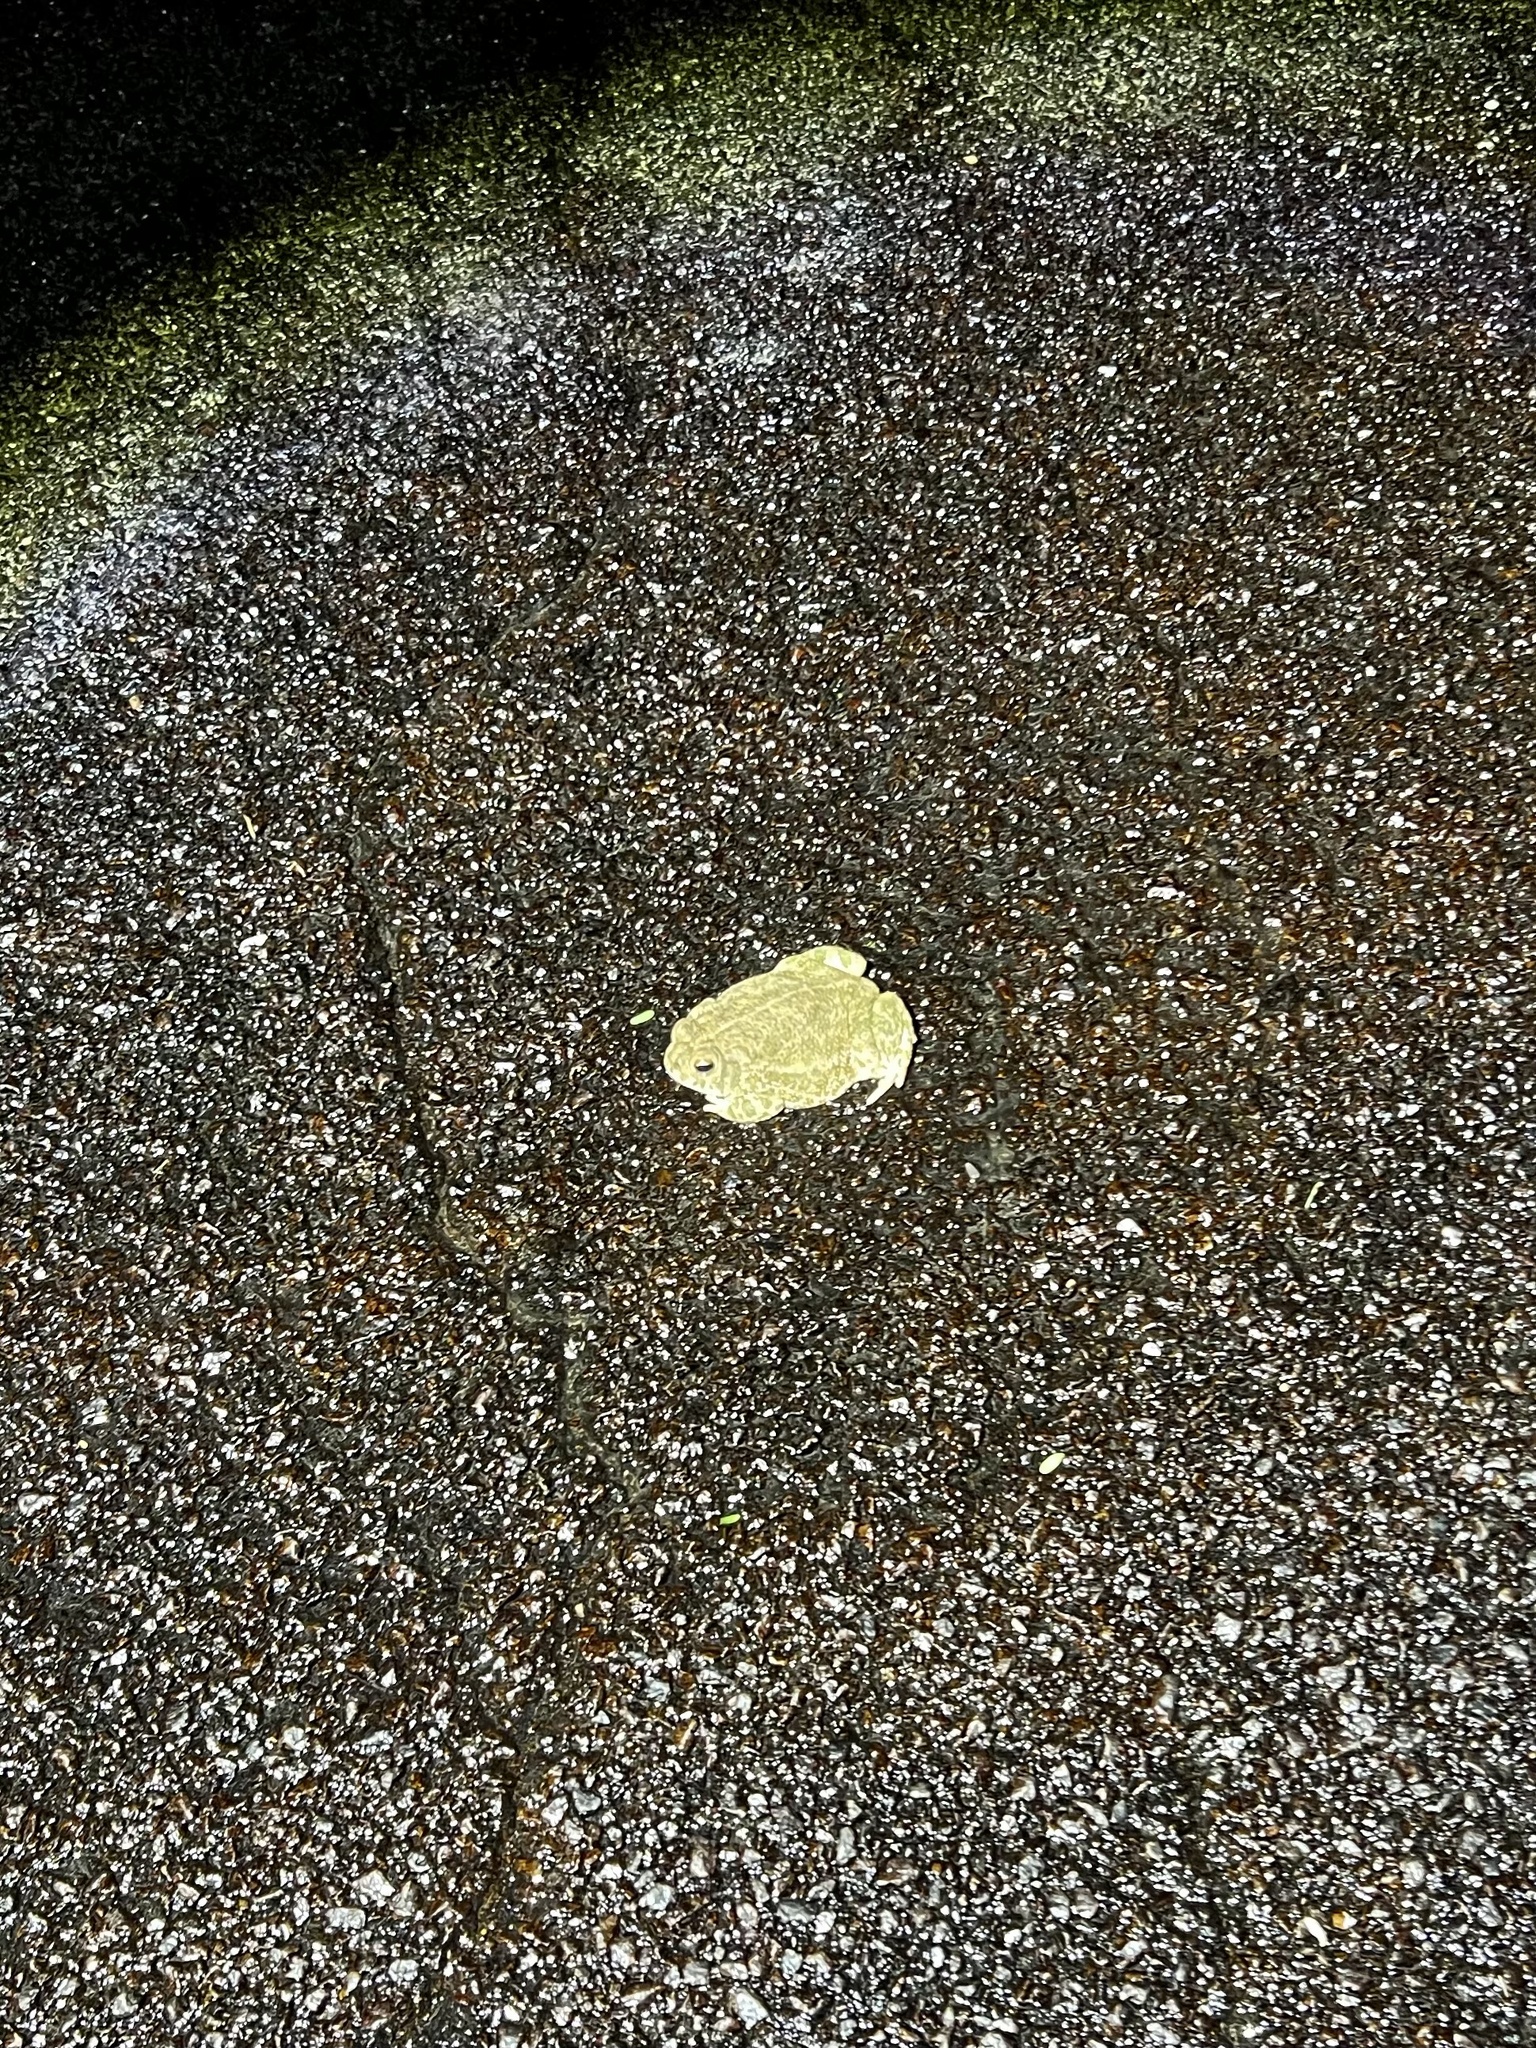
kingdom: Animalia
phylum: Chordata
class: Amphibia
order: Anura
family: Bufonidae
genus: Anaxyrus
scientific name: Anaxyrus cognatus
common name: Great plains toad
